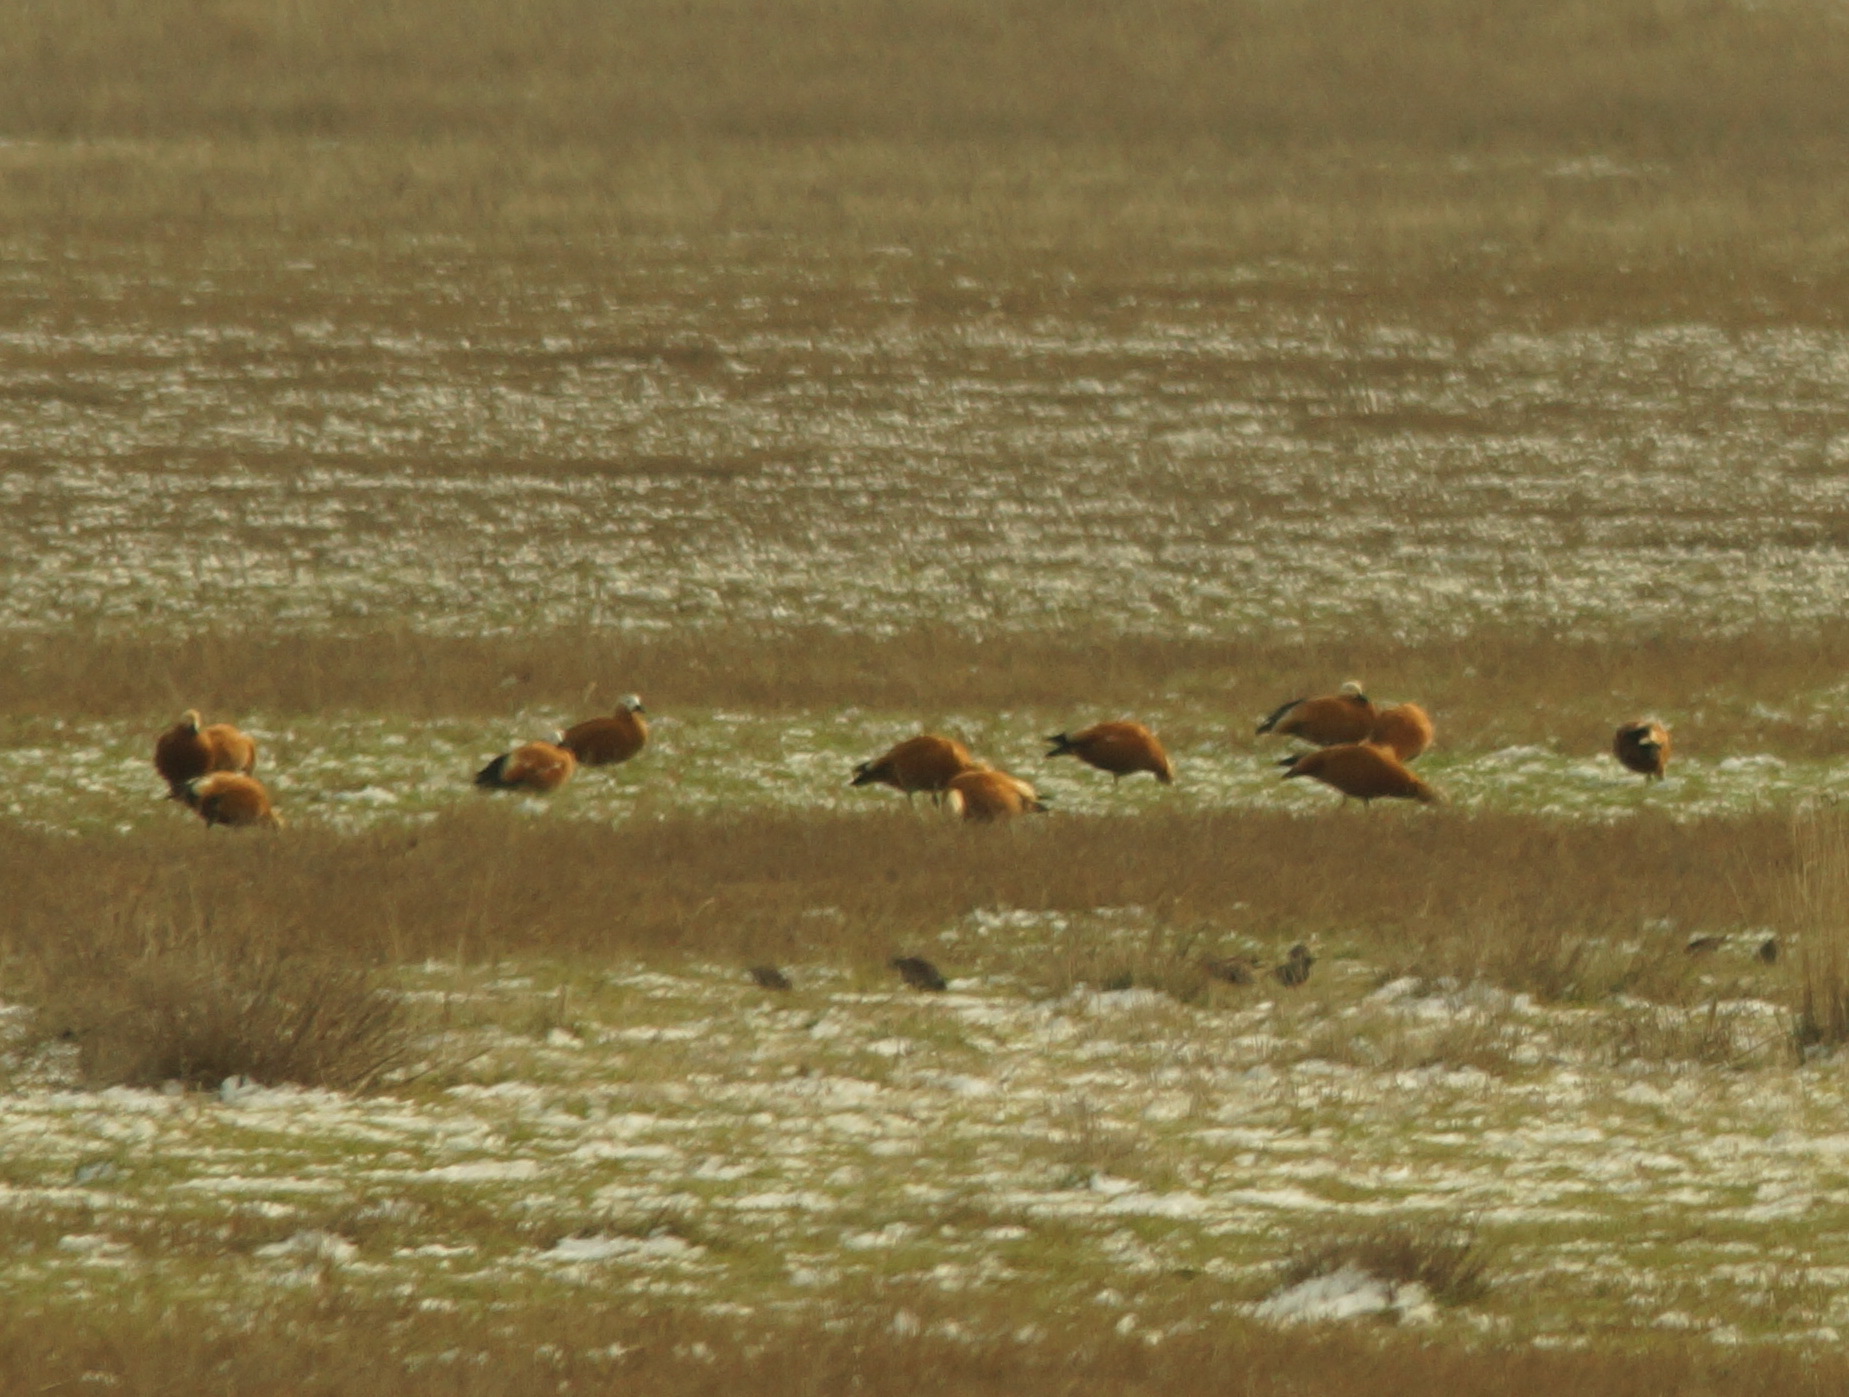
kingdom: Animalia
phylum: Chordata
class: Aves
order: Anseriformes
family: Anatidae
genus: Tadorna
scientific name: Tadorna ferruginea
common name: Ruddy shelduck
